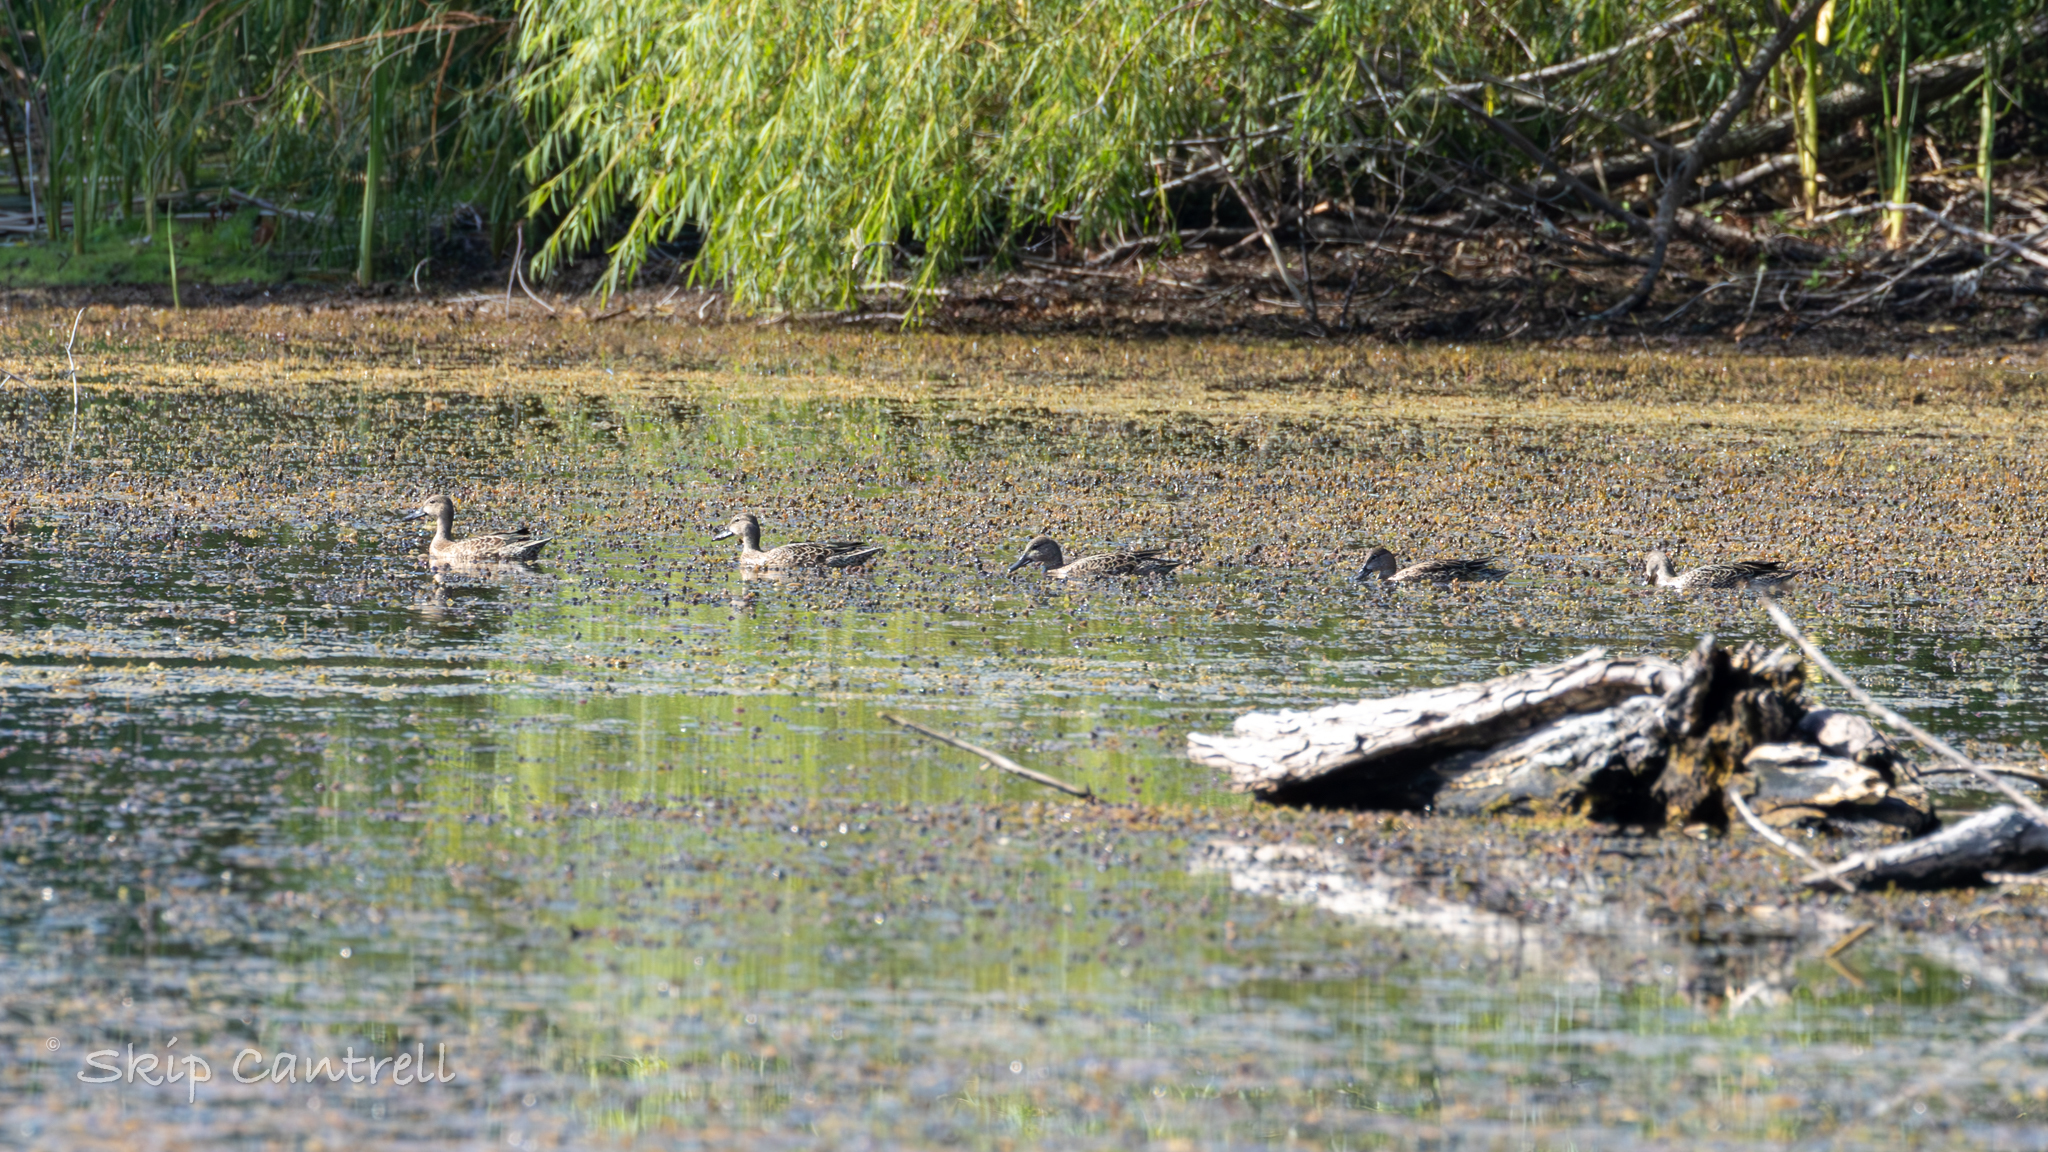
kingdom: Animalia
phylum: Chordata
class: Aves
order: Anseriformes
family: Anatidae
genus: Spatula
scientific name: Spatula discors
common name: Blue-winged teal
